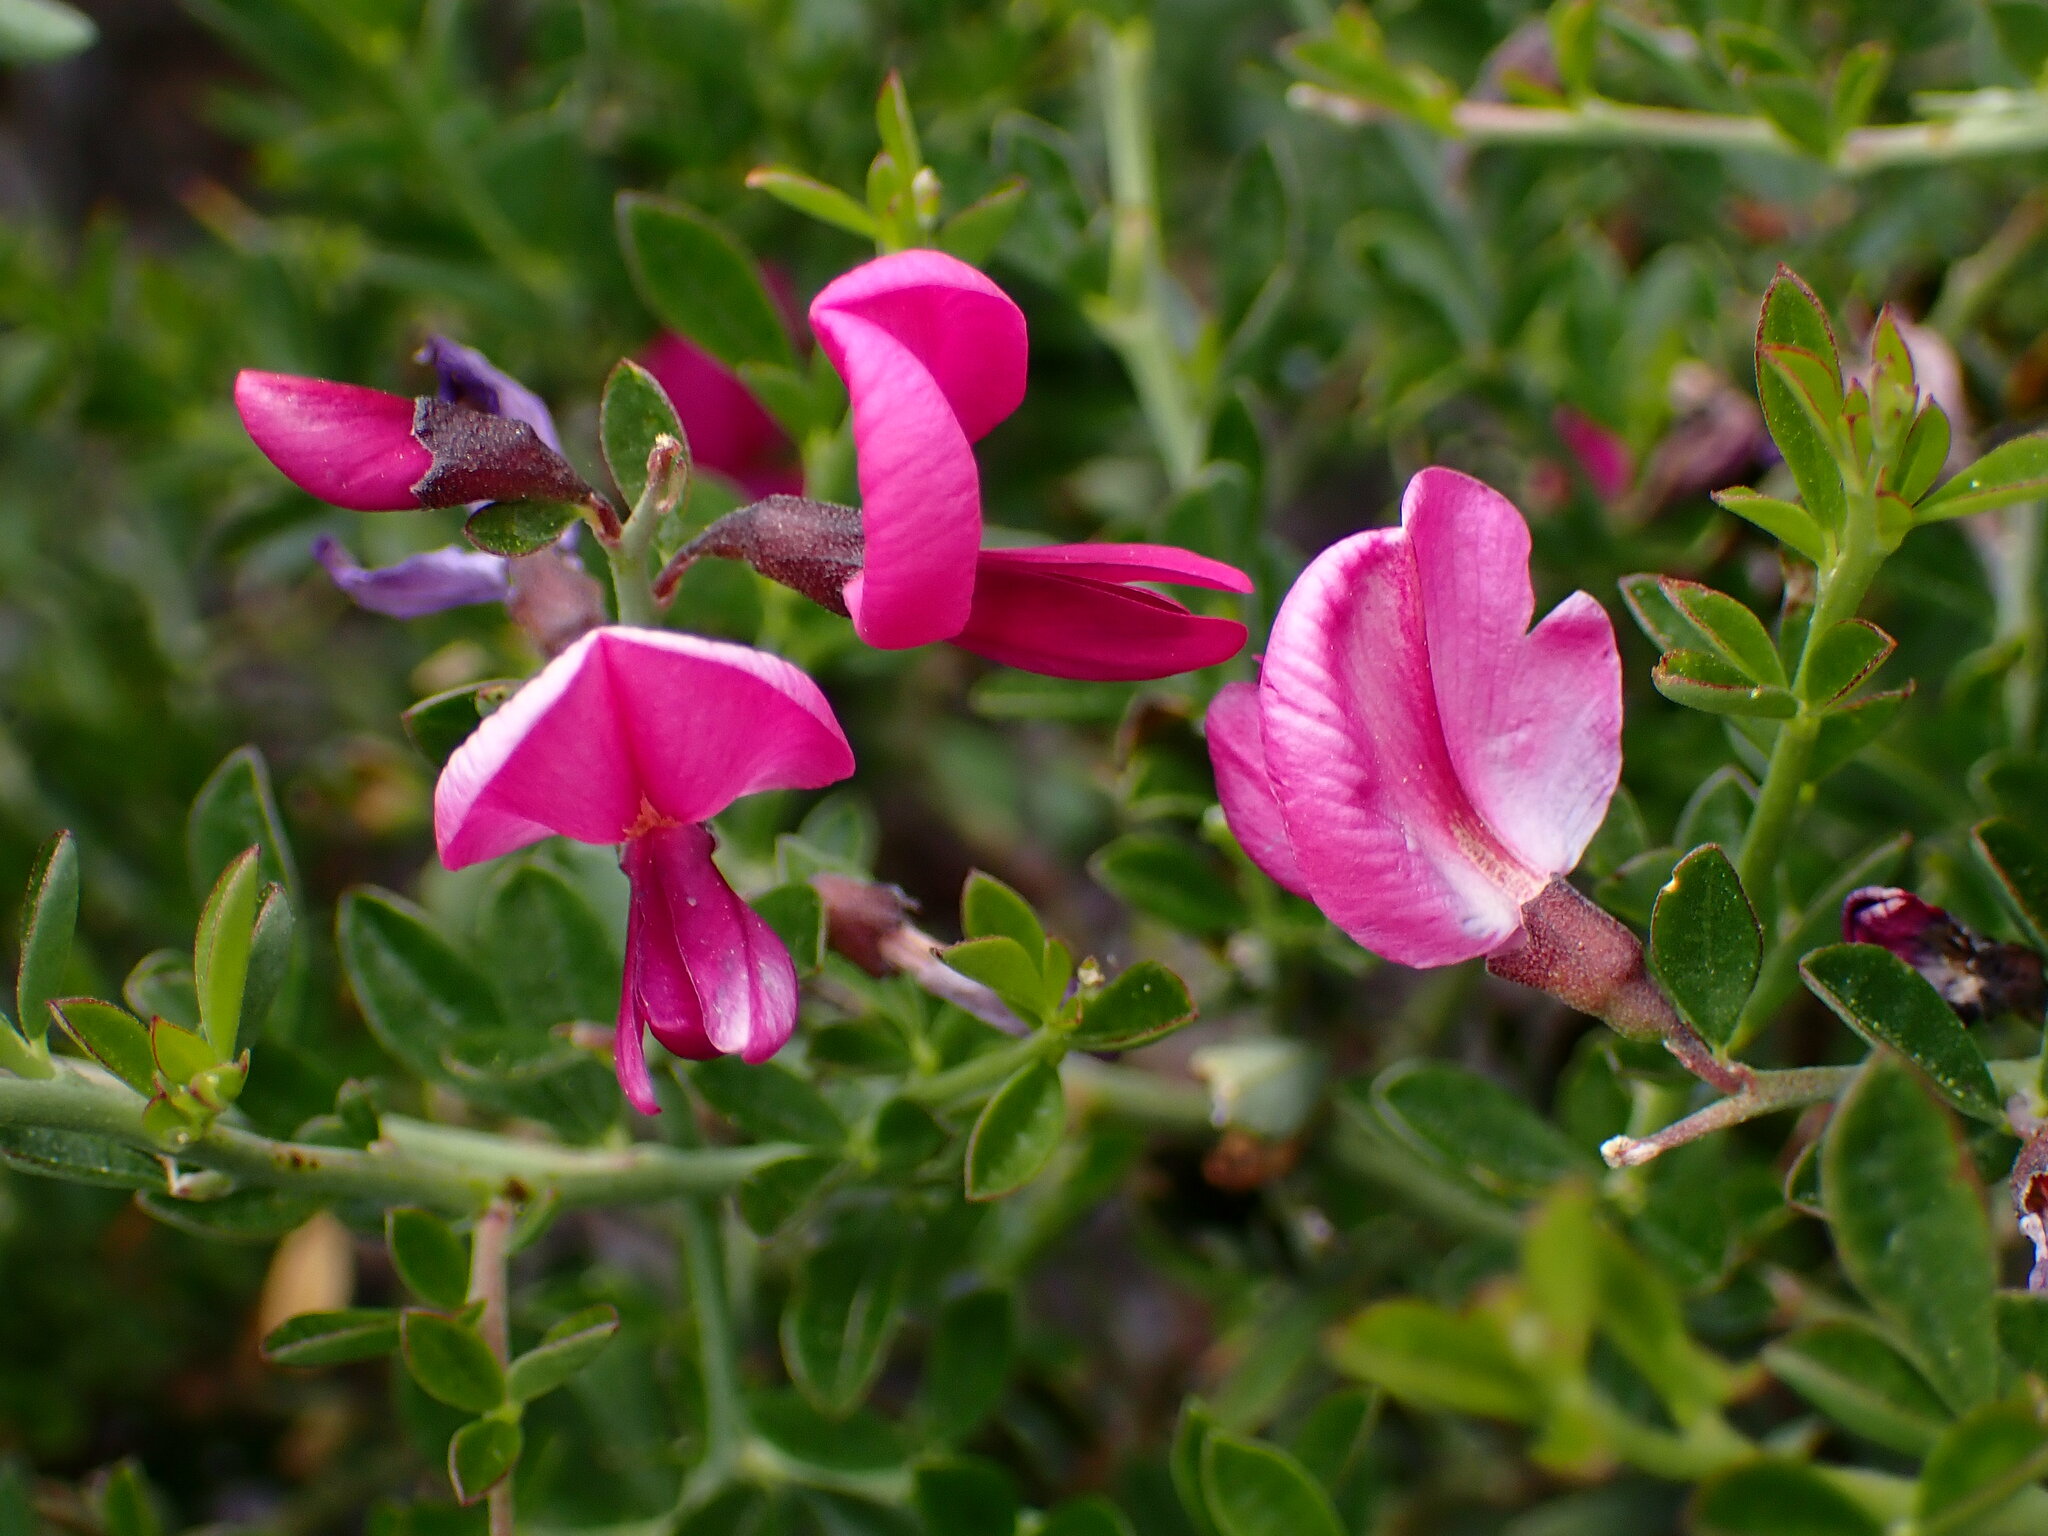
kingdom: Plantae
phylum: Tracheophyta
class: Magnoliopsida
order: Fabales
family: Fabaceae
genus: Pickeringia
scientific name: Pickeringia montana
